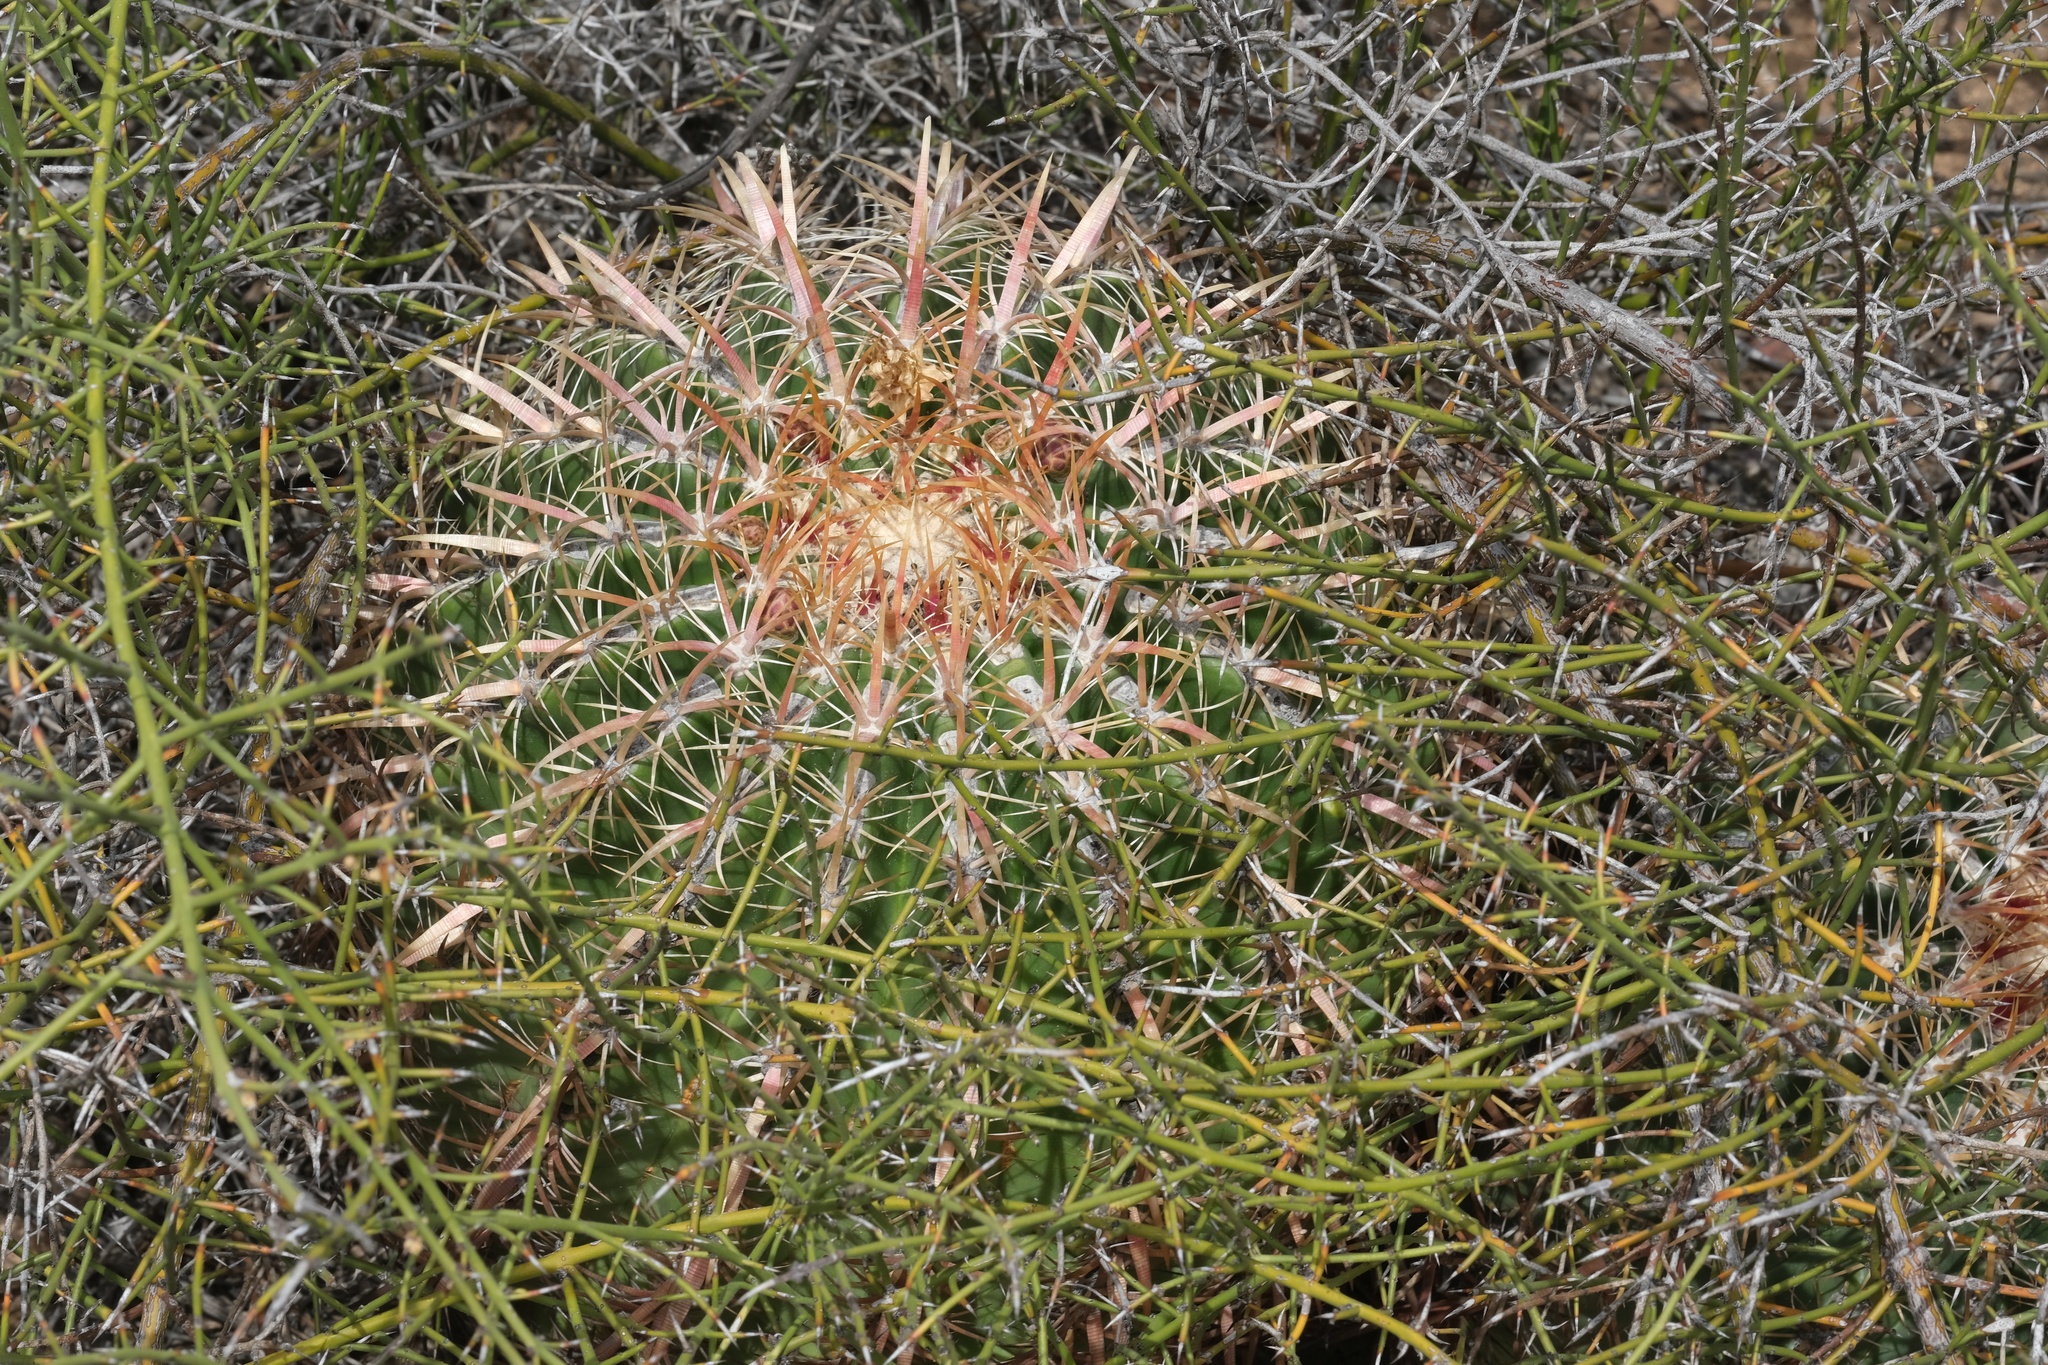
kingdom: Plantae
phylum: Tracheophyta
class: Magnoliopsida
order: Caryophyllales
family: Cactaceae
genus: Ferocactus
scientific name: Ferocactus viridescens
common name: San diego barrel cactus
